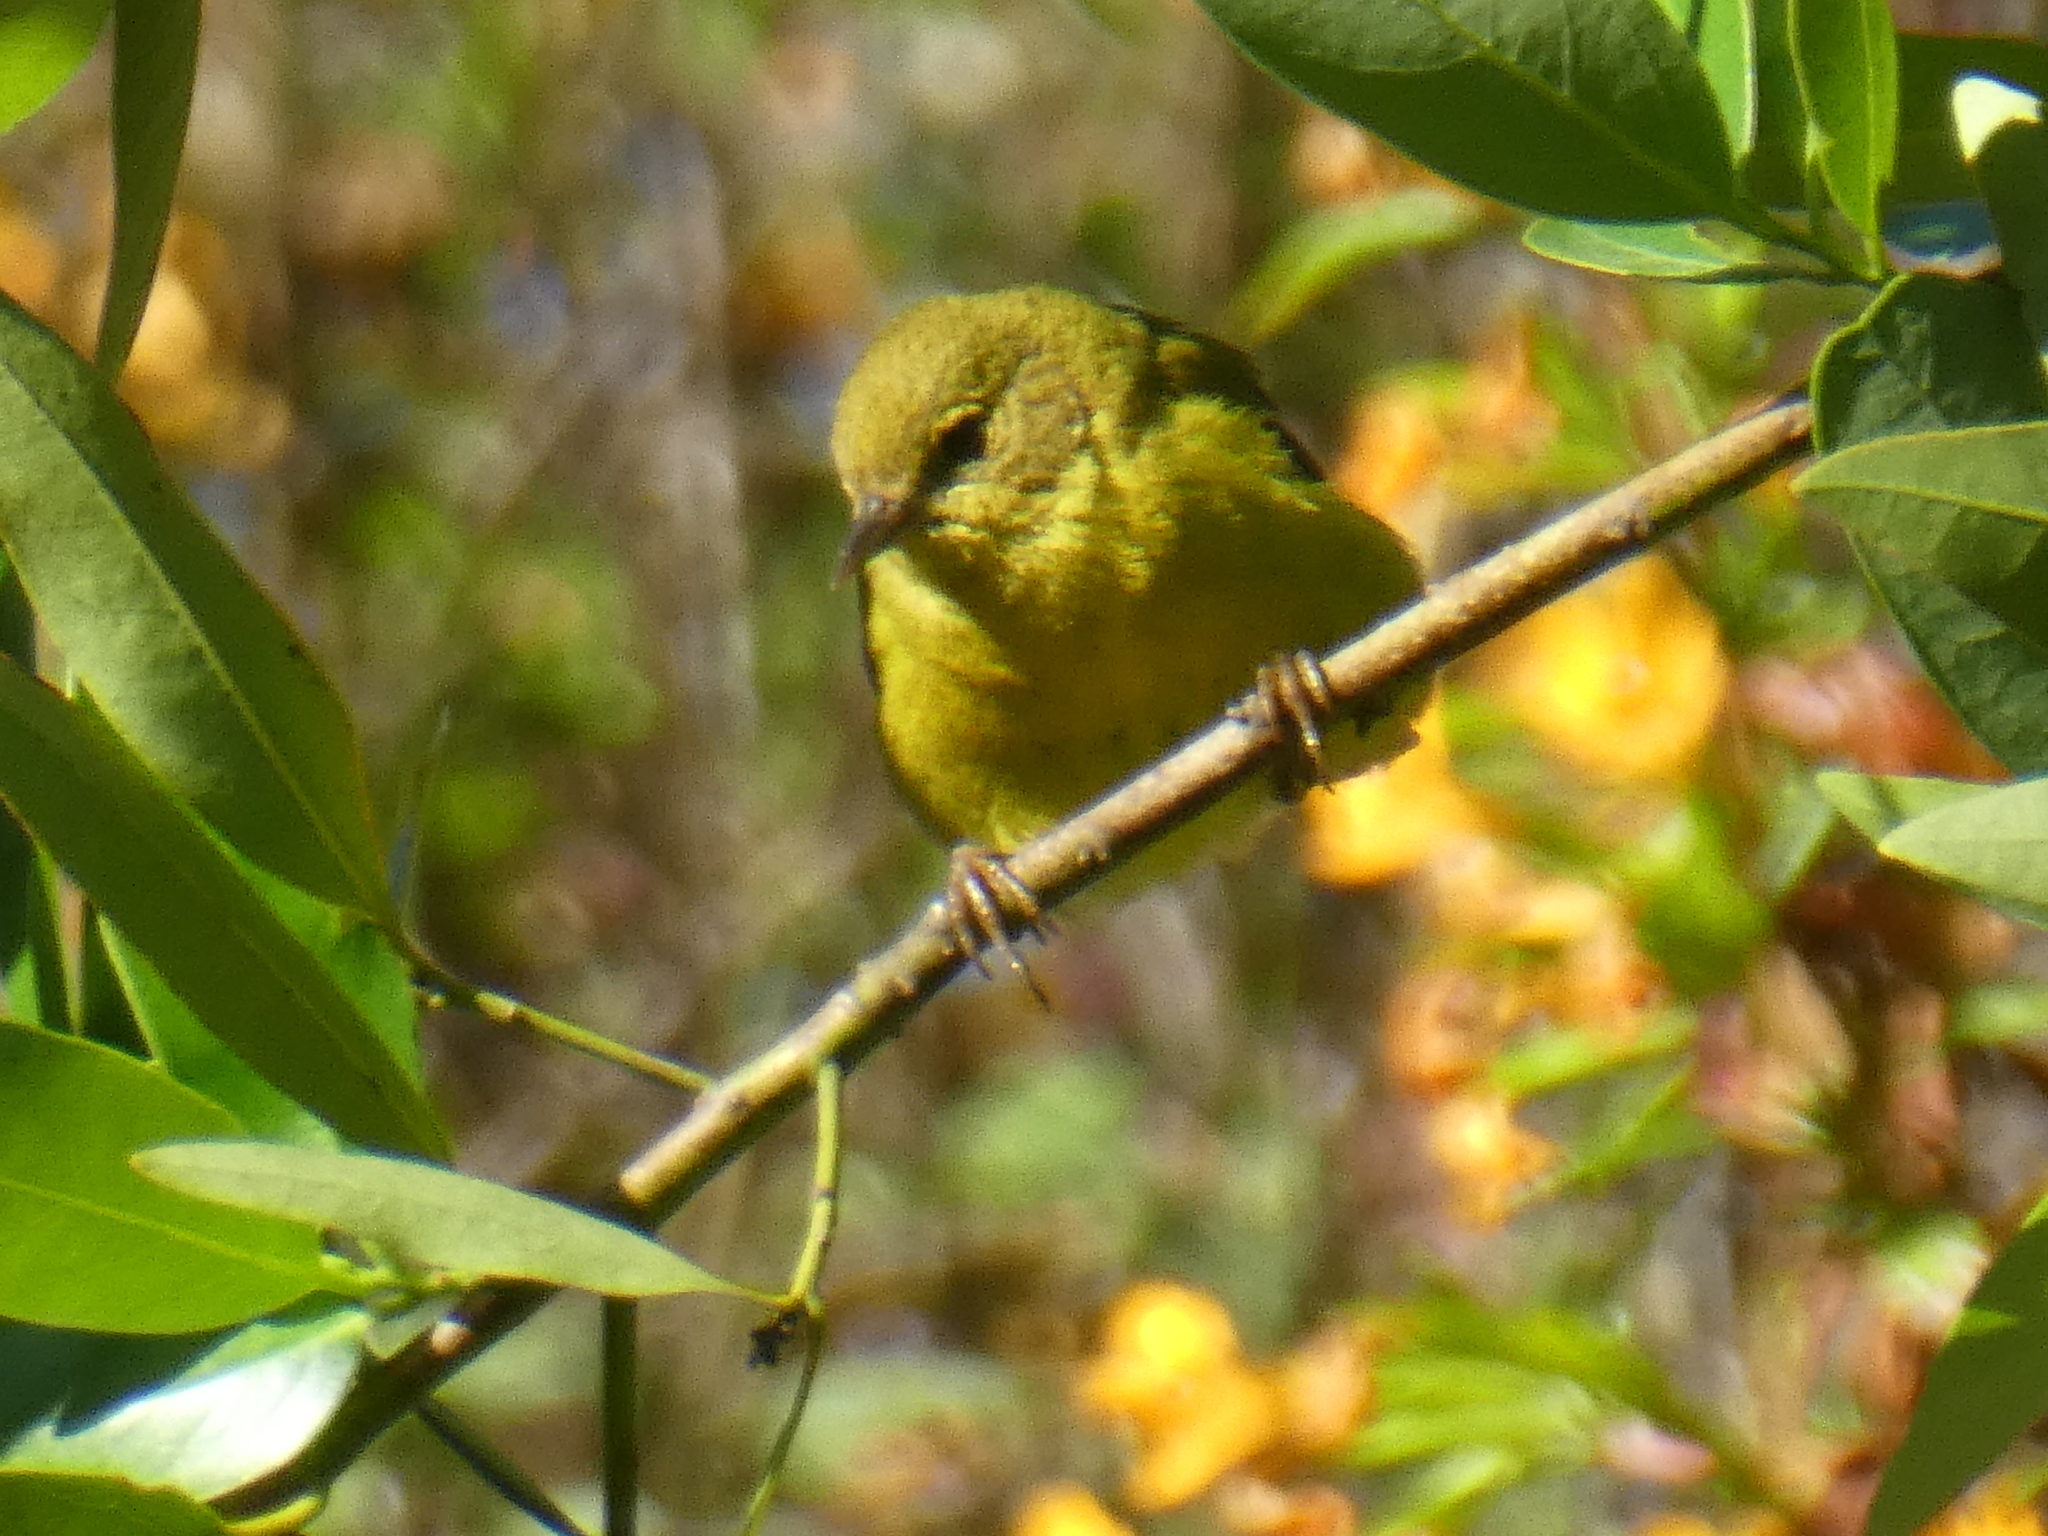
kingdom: Animalia
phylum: Chordata
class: Aves
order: Passeriformes
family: Parulidae
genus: Leiothlypis
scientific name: Leiothlypis celata
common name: Orange-crowned warbler
